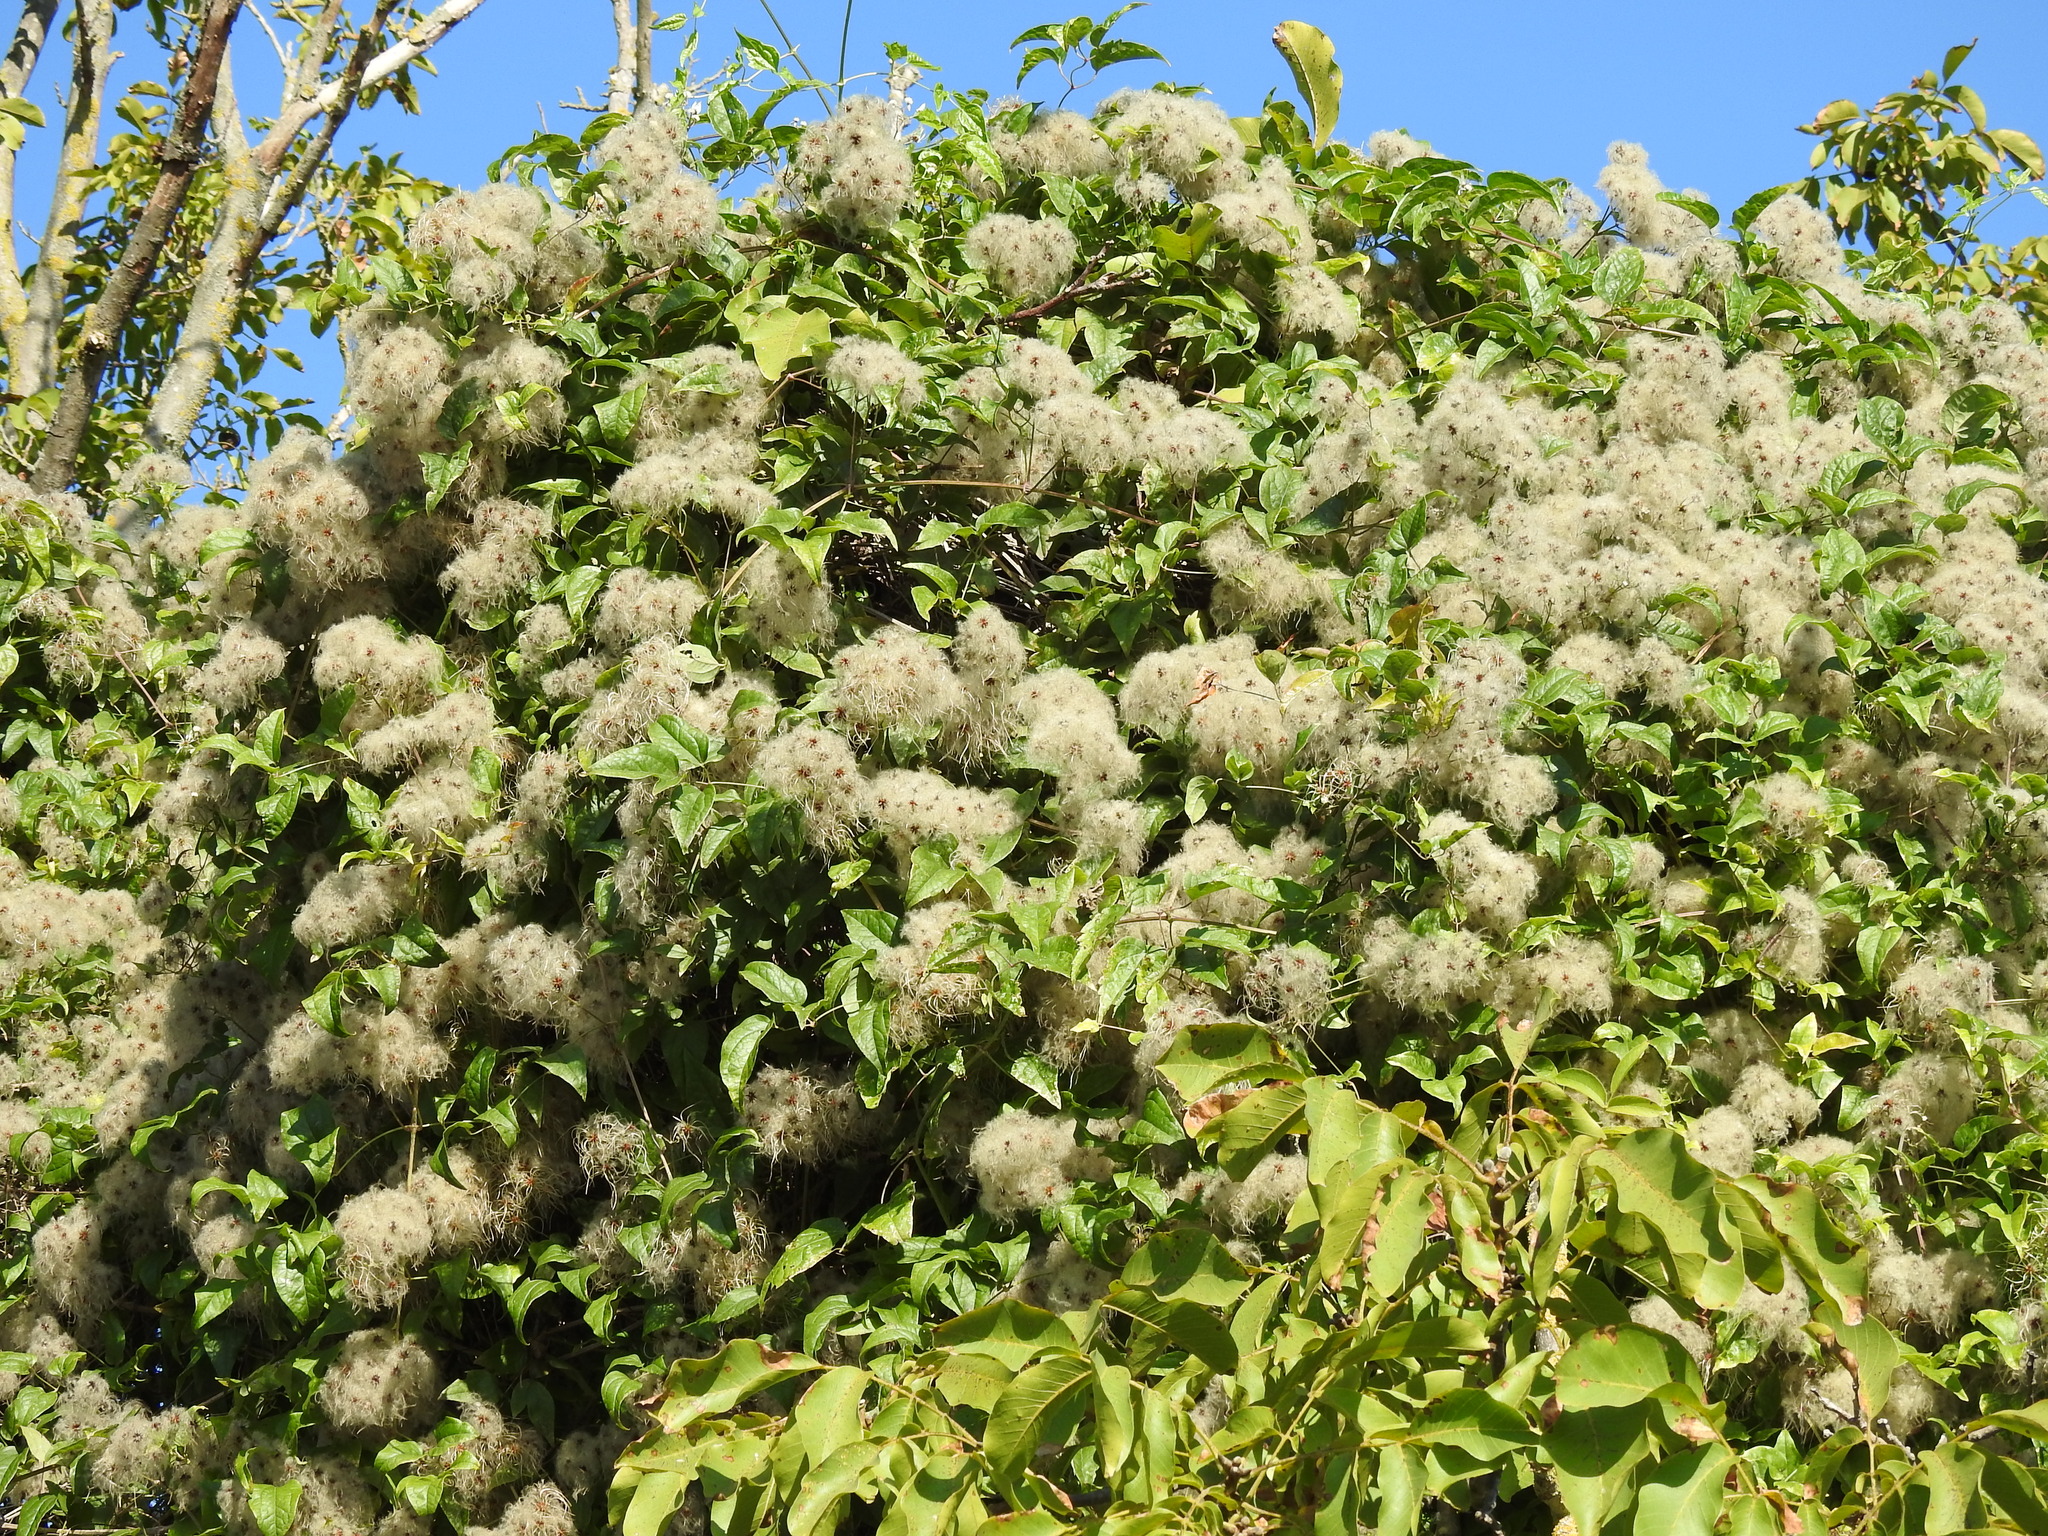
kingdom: Plantae
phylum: Tracheophyta
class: Magnoliopsida
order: Ranunculales
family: Ranunculaceae
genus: Clematis
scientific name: Clematis vitalba
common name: Evergreen clematis
